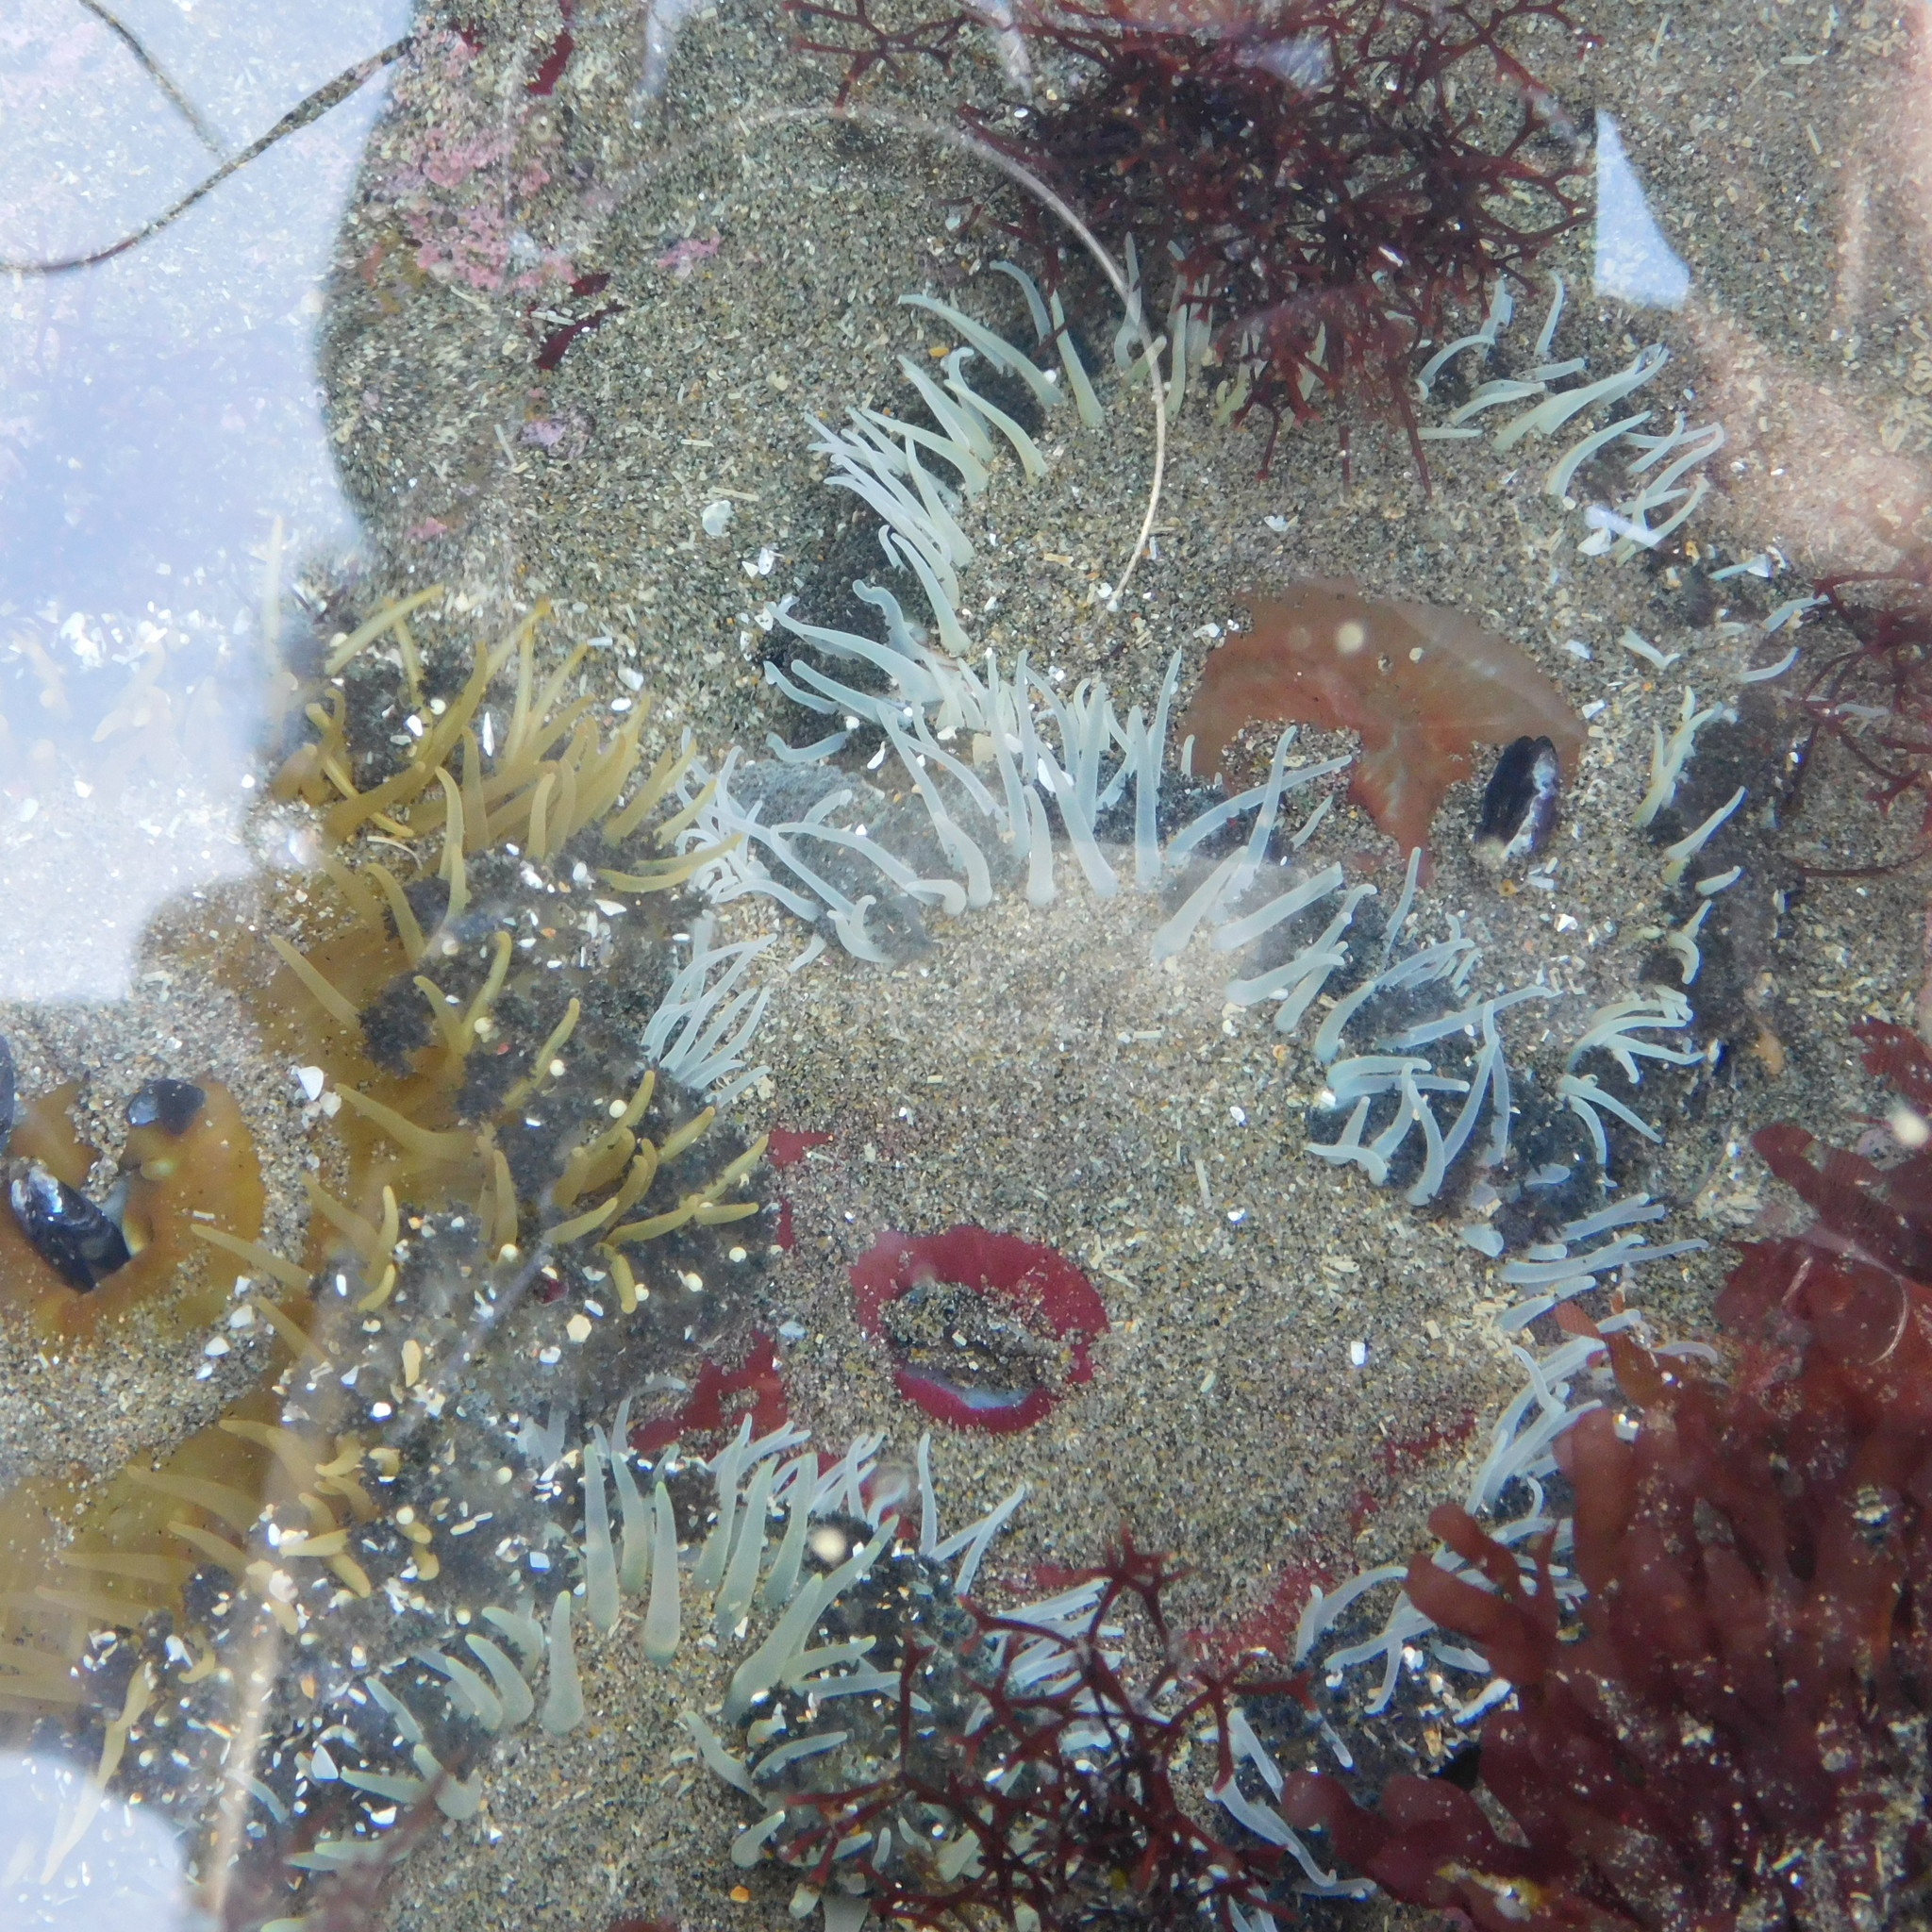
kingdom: Animalia
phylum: Cnidaria
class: Anthozoa
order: Actiniaria
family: Actiniidae
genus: Oulactis
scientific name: Oulactis magna
